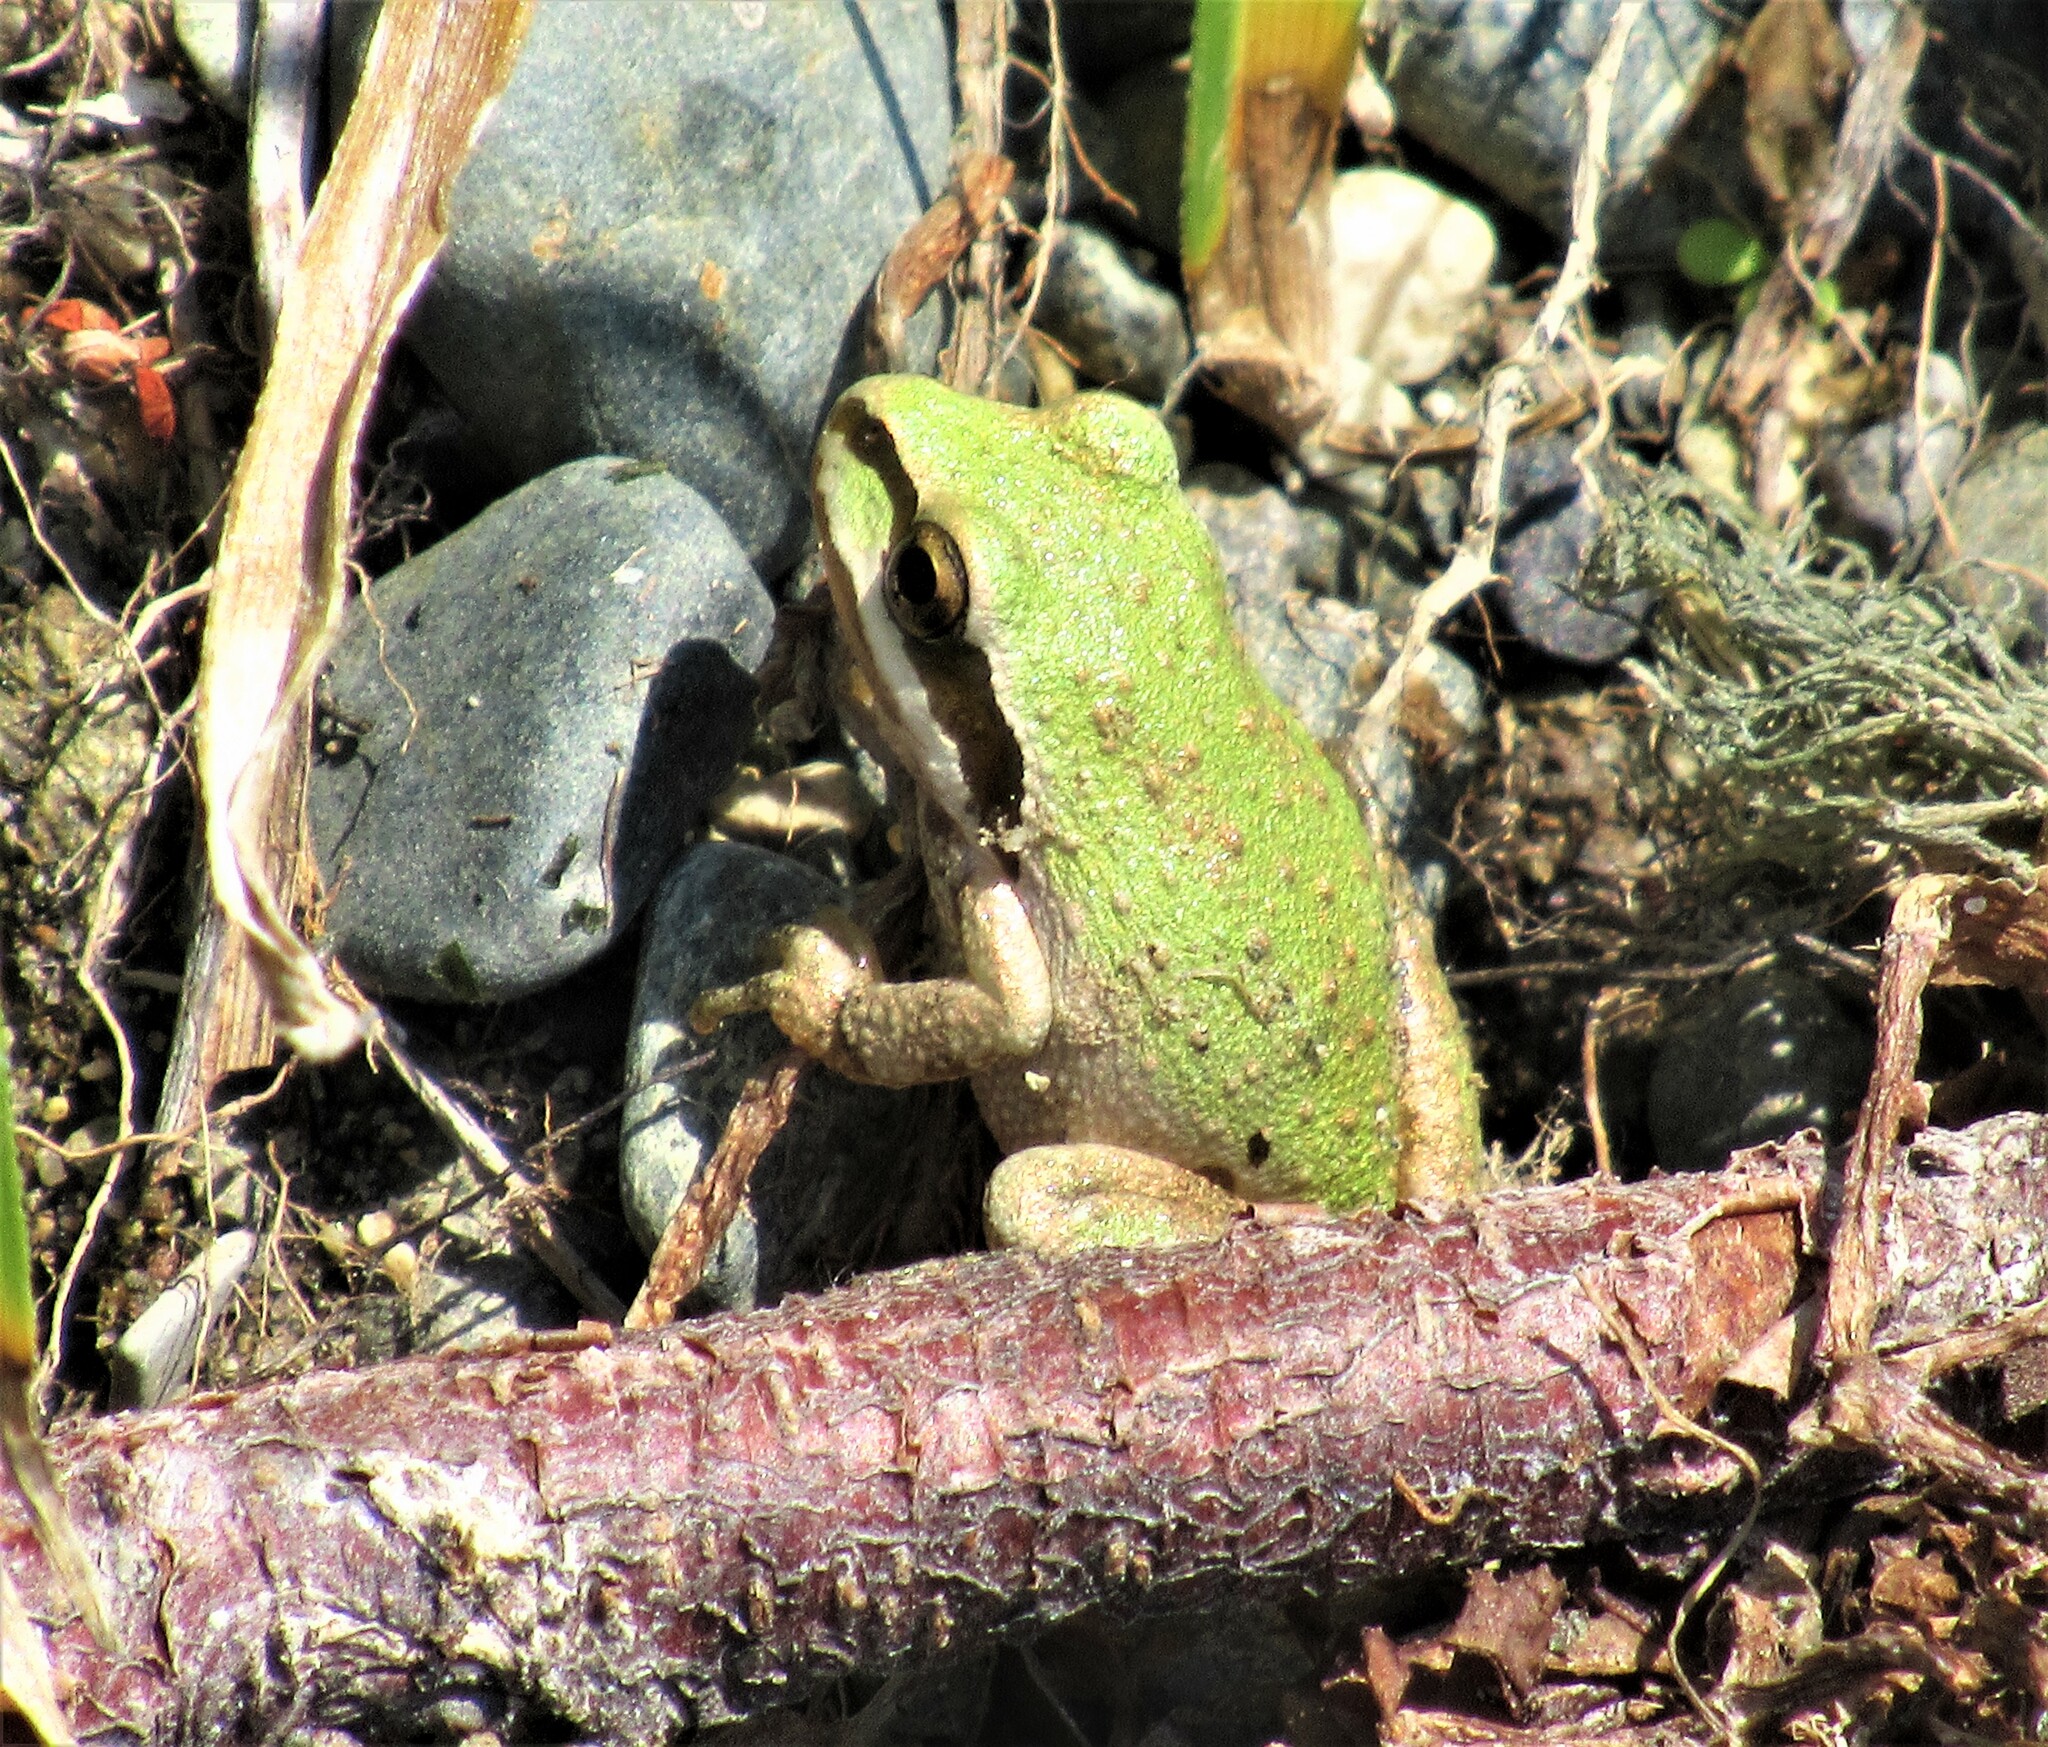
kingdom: Animalia
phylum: Chordata
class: Amphibia
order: Anura
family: Hylidae
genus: Pseudacris
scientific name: Pseudacris regilla
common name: Pacific chorus frog
